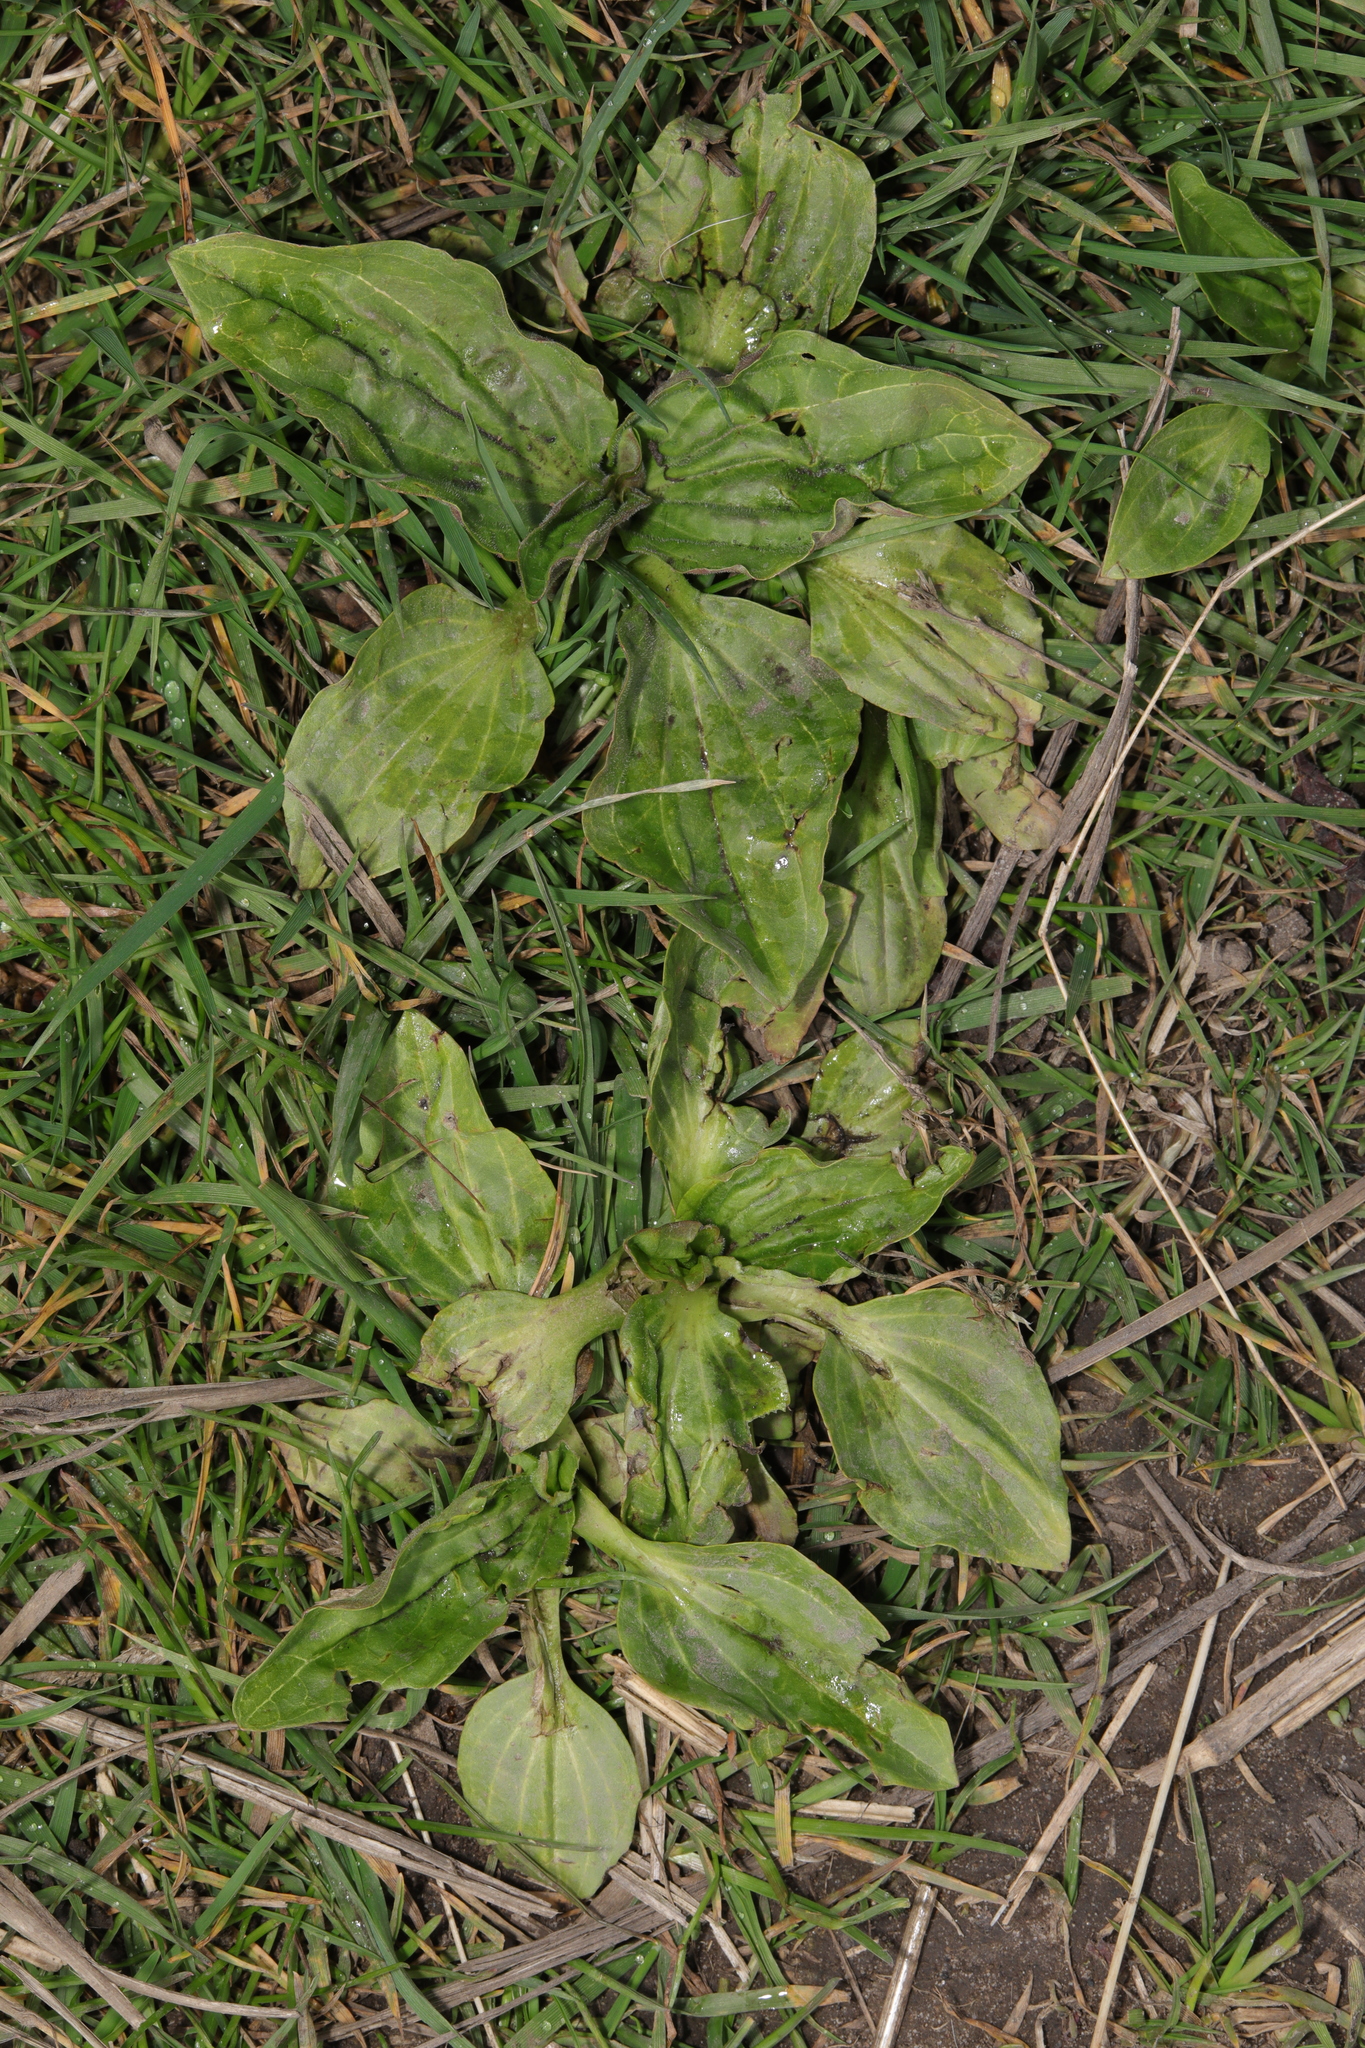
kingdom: Plantae
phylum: Tracheophyta
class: Magnoliopsida
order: Lamiales
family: Plantaginaceae
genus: Plantago
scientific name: Plantago major
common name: Common plantain
